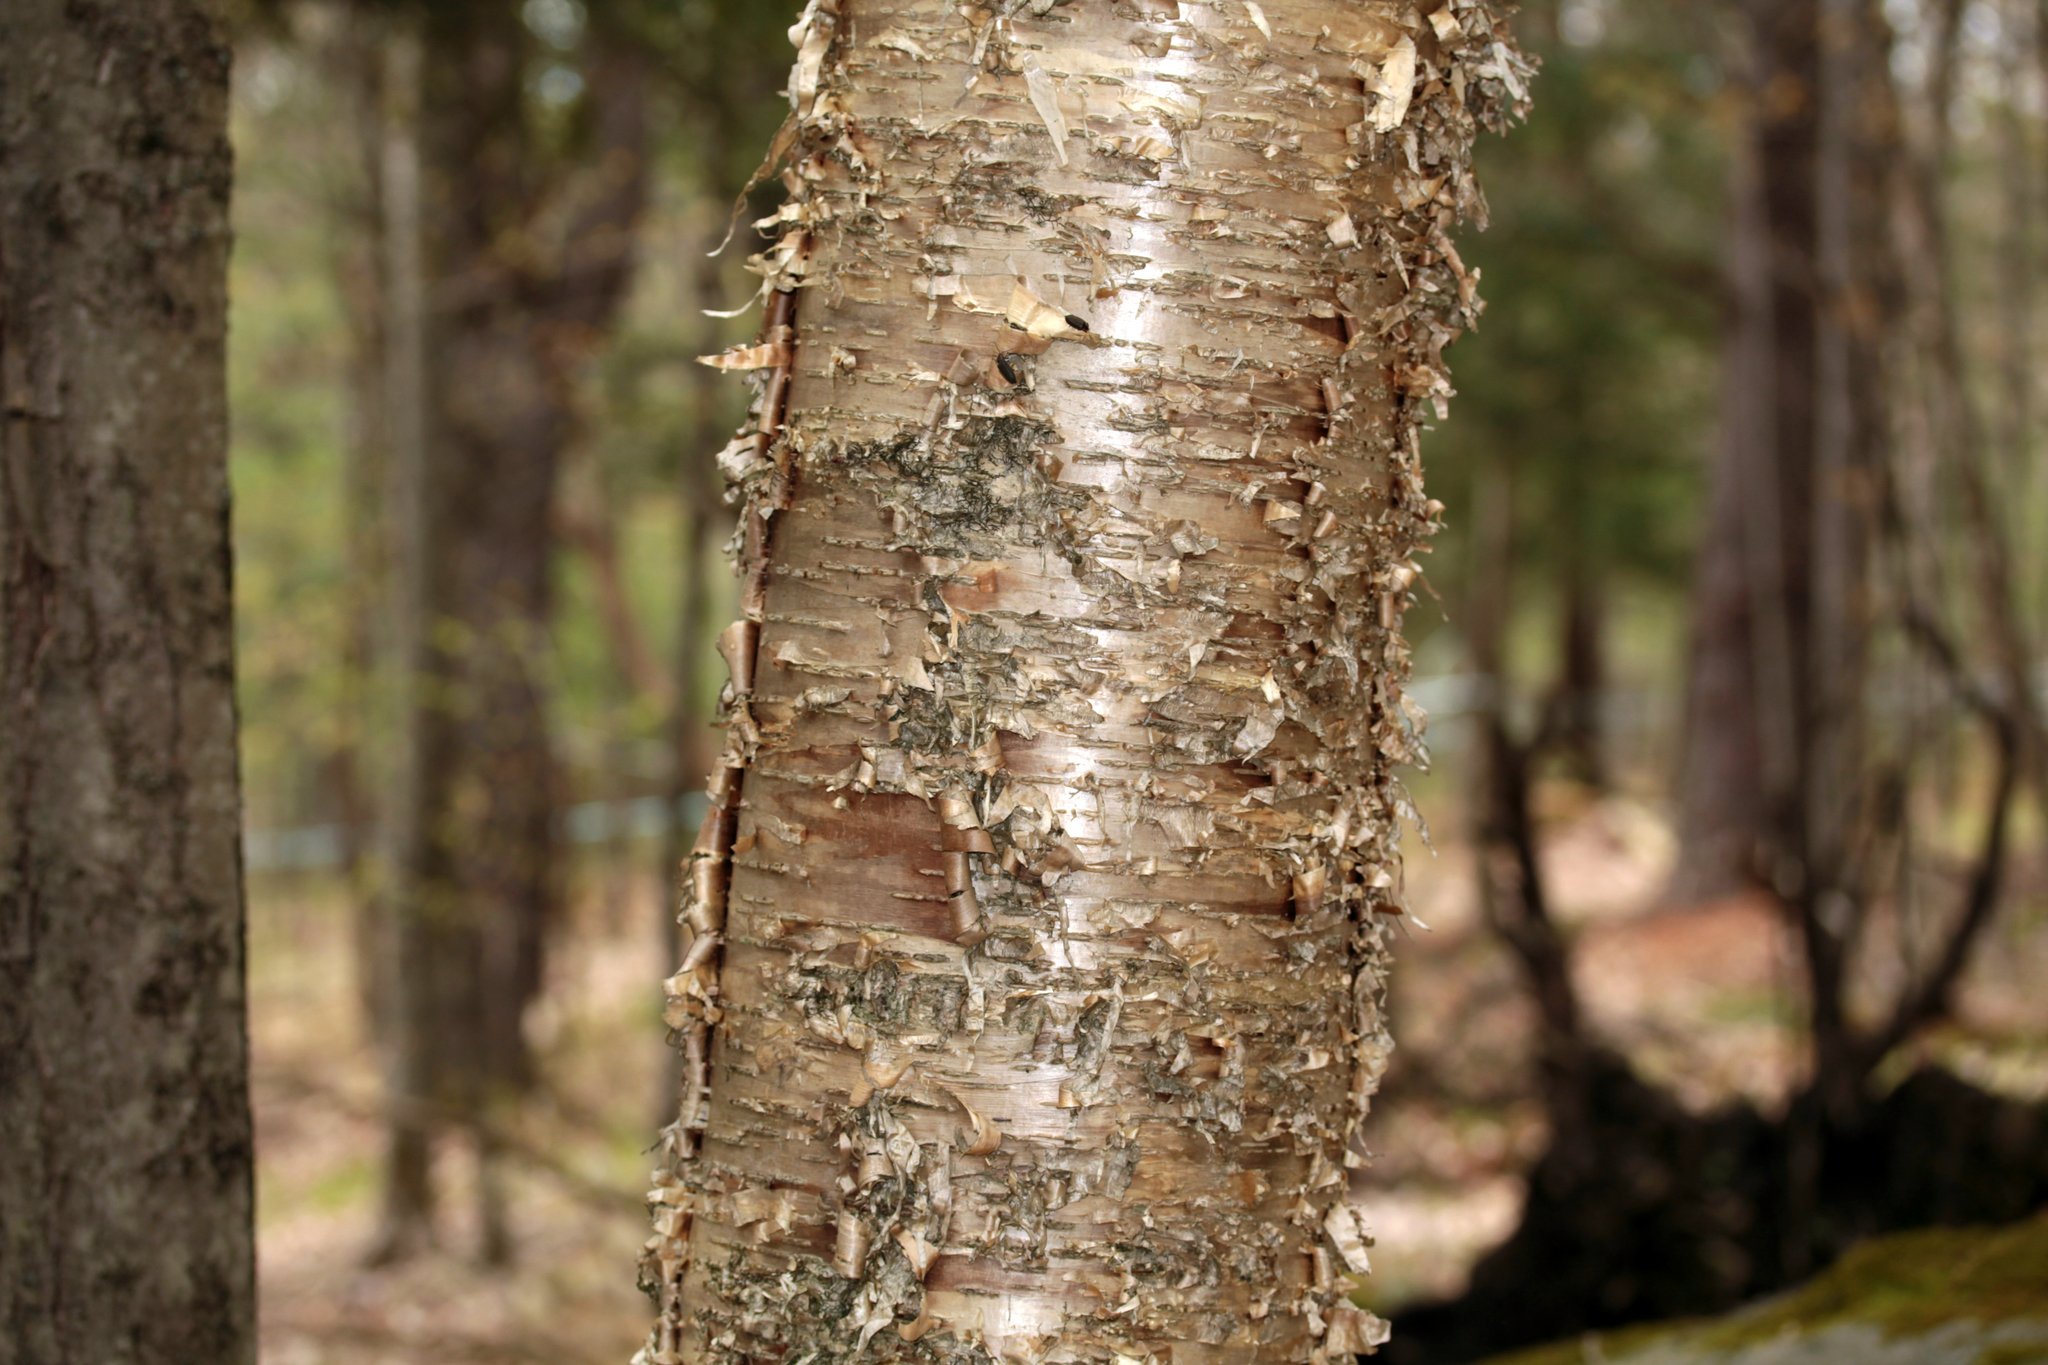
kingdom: Plantae
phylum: Tracheophyta
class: Magnoliopsida
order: Fagales
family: Betulaceae
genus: Betula
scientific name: Betula alleghaniensis
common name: Yellow birch
